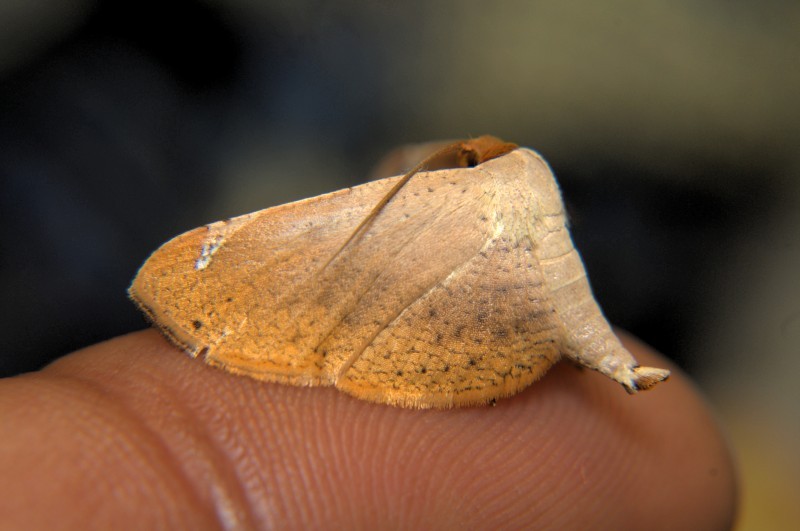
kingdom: Animalia
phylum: Arthropoda
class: Insecta
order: Lepidoptera
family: Thyrididae
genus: Calindoea
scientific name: Calindoea
